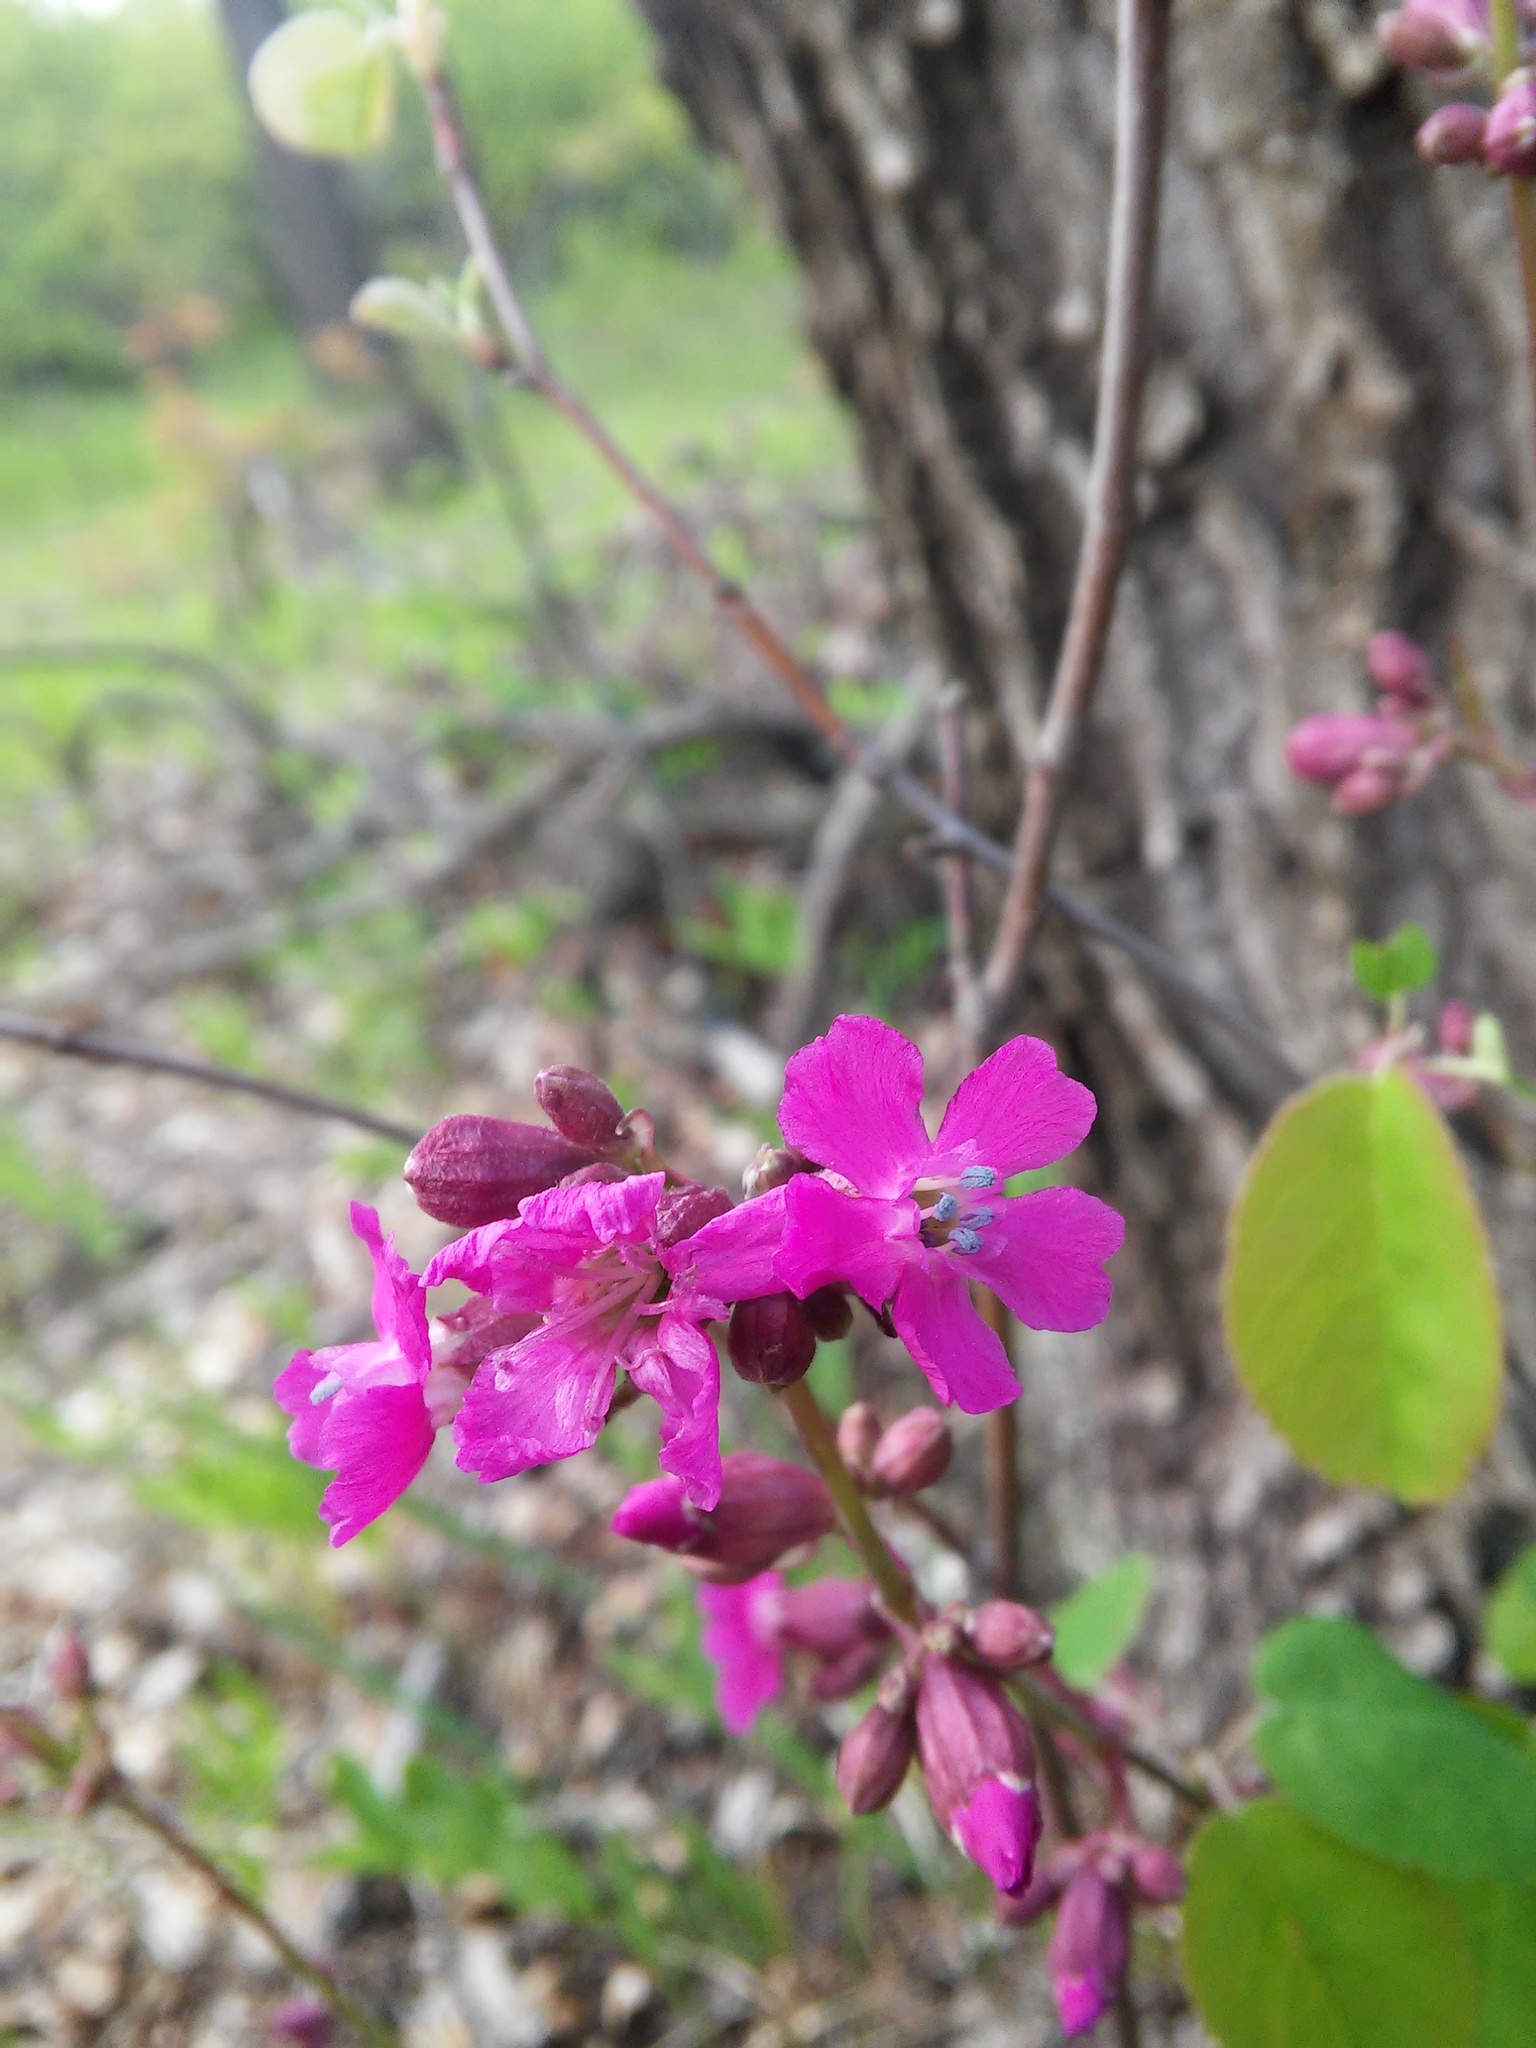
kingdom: Plantae
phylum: Tracheophyta
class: Magnoliopsida
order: Caryophyllales
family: Caryophyllaceae
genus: Viscaria
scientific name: Viscaria vulgaris
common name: Clammy campion
